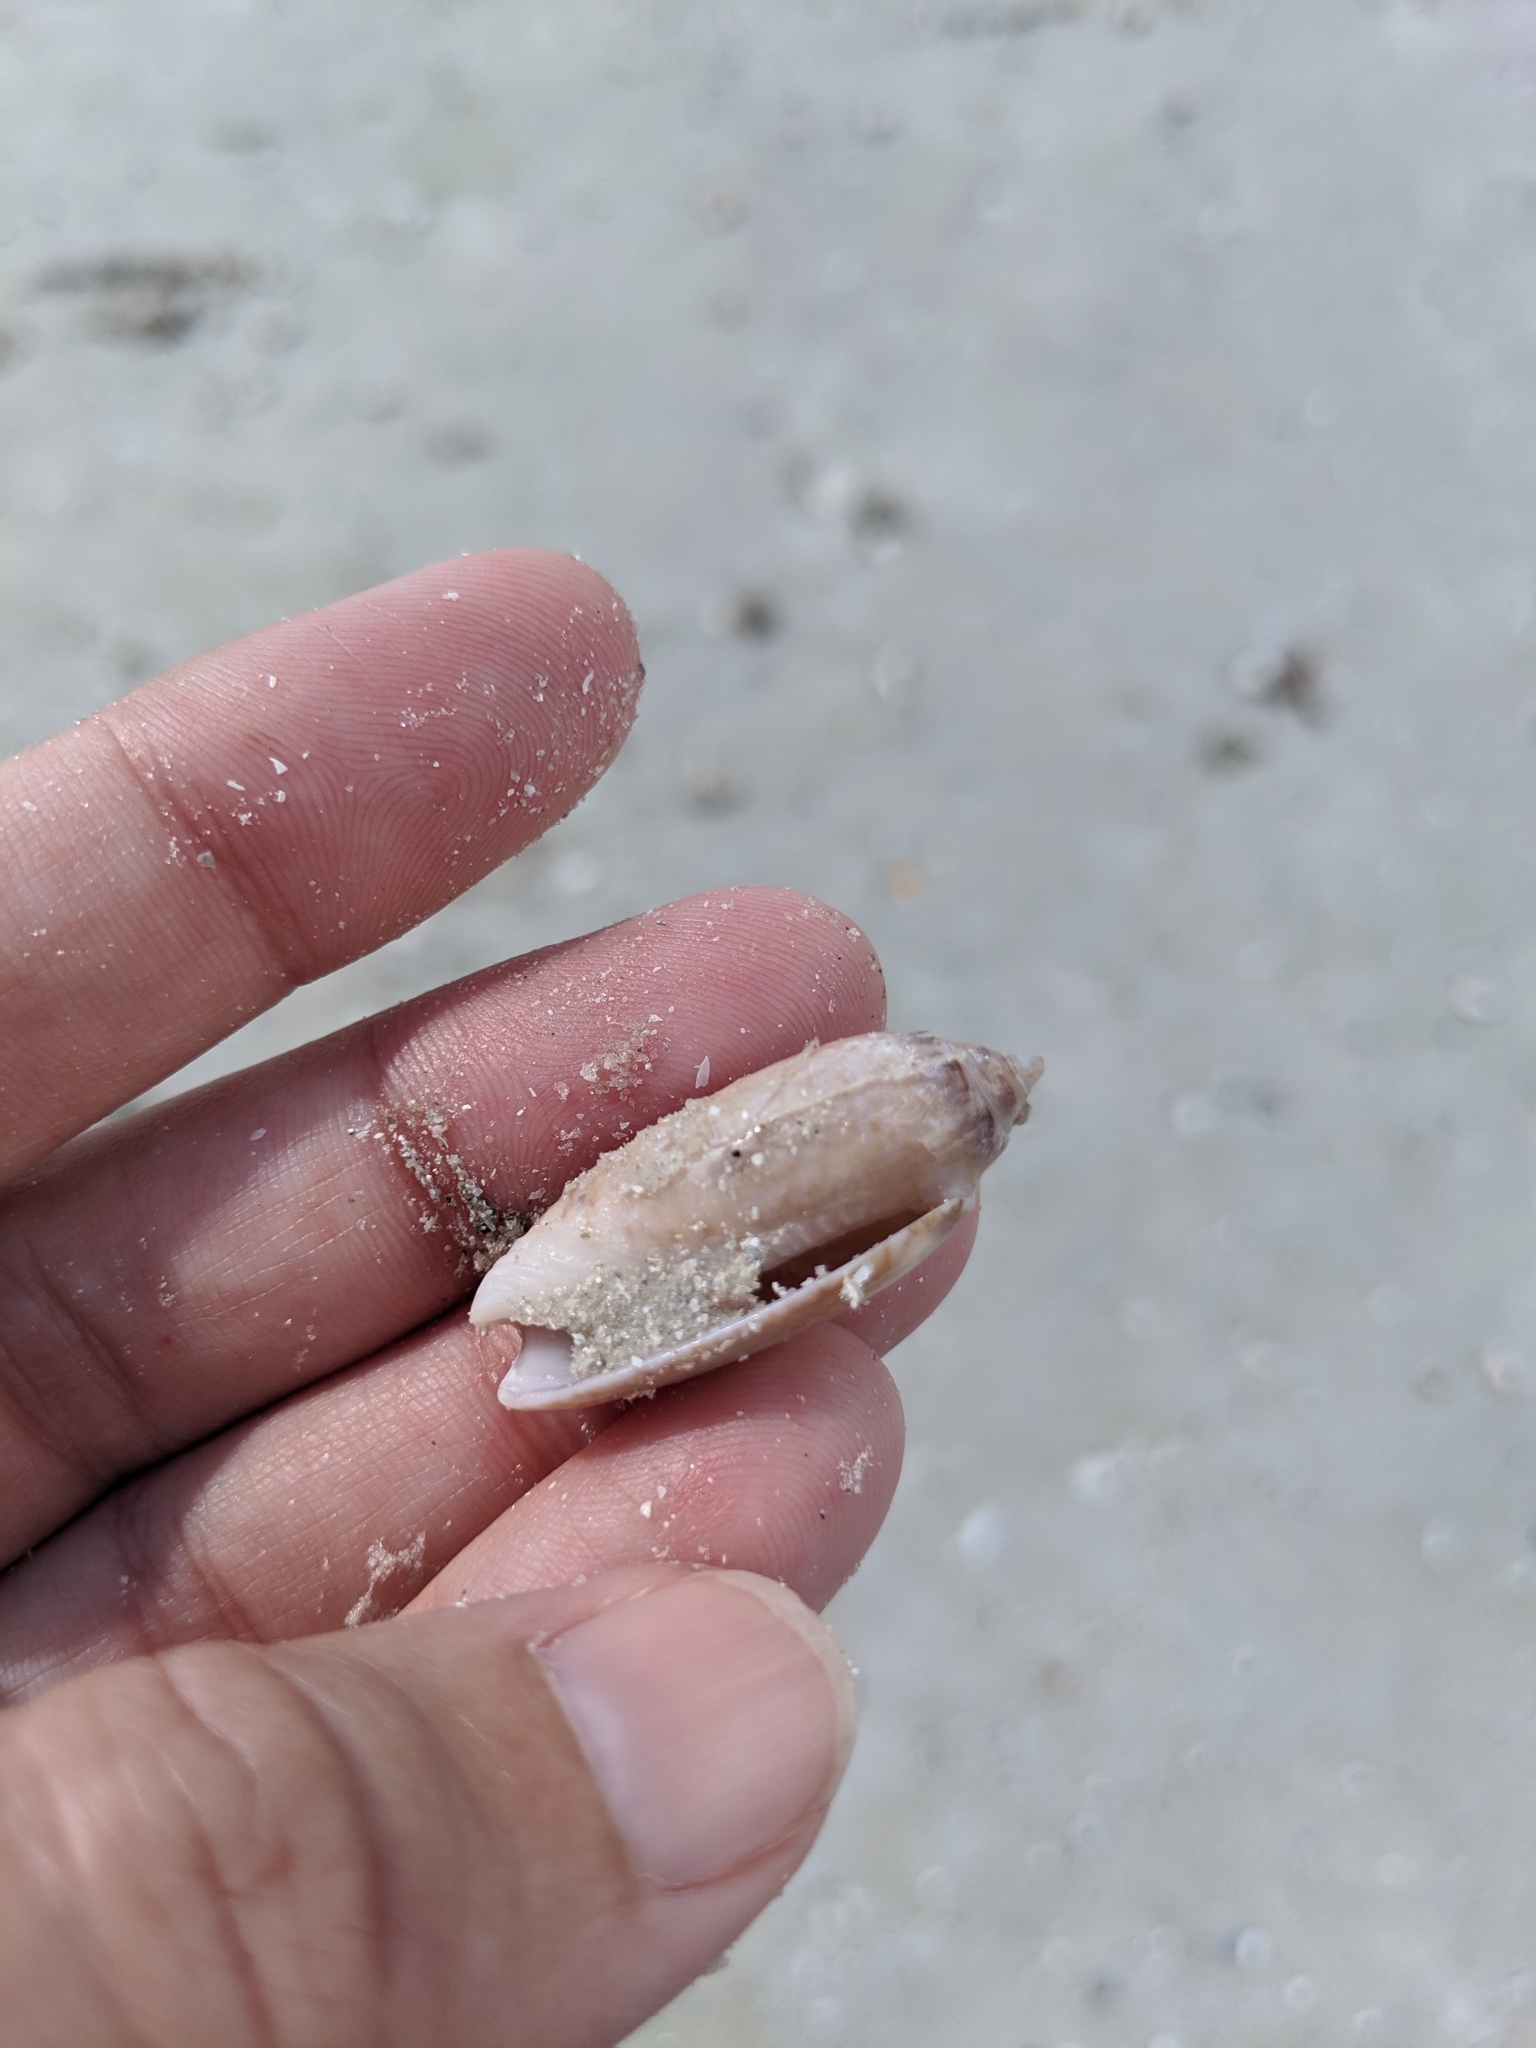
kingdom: Animalia
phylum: Mollusca
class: Gastropoda
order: Neogastropoda
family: Olividae
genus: Oliva
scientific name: Oliva sayana
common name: Lettered olive
